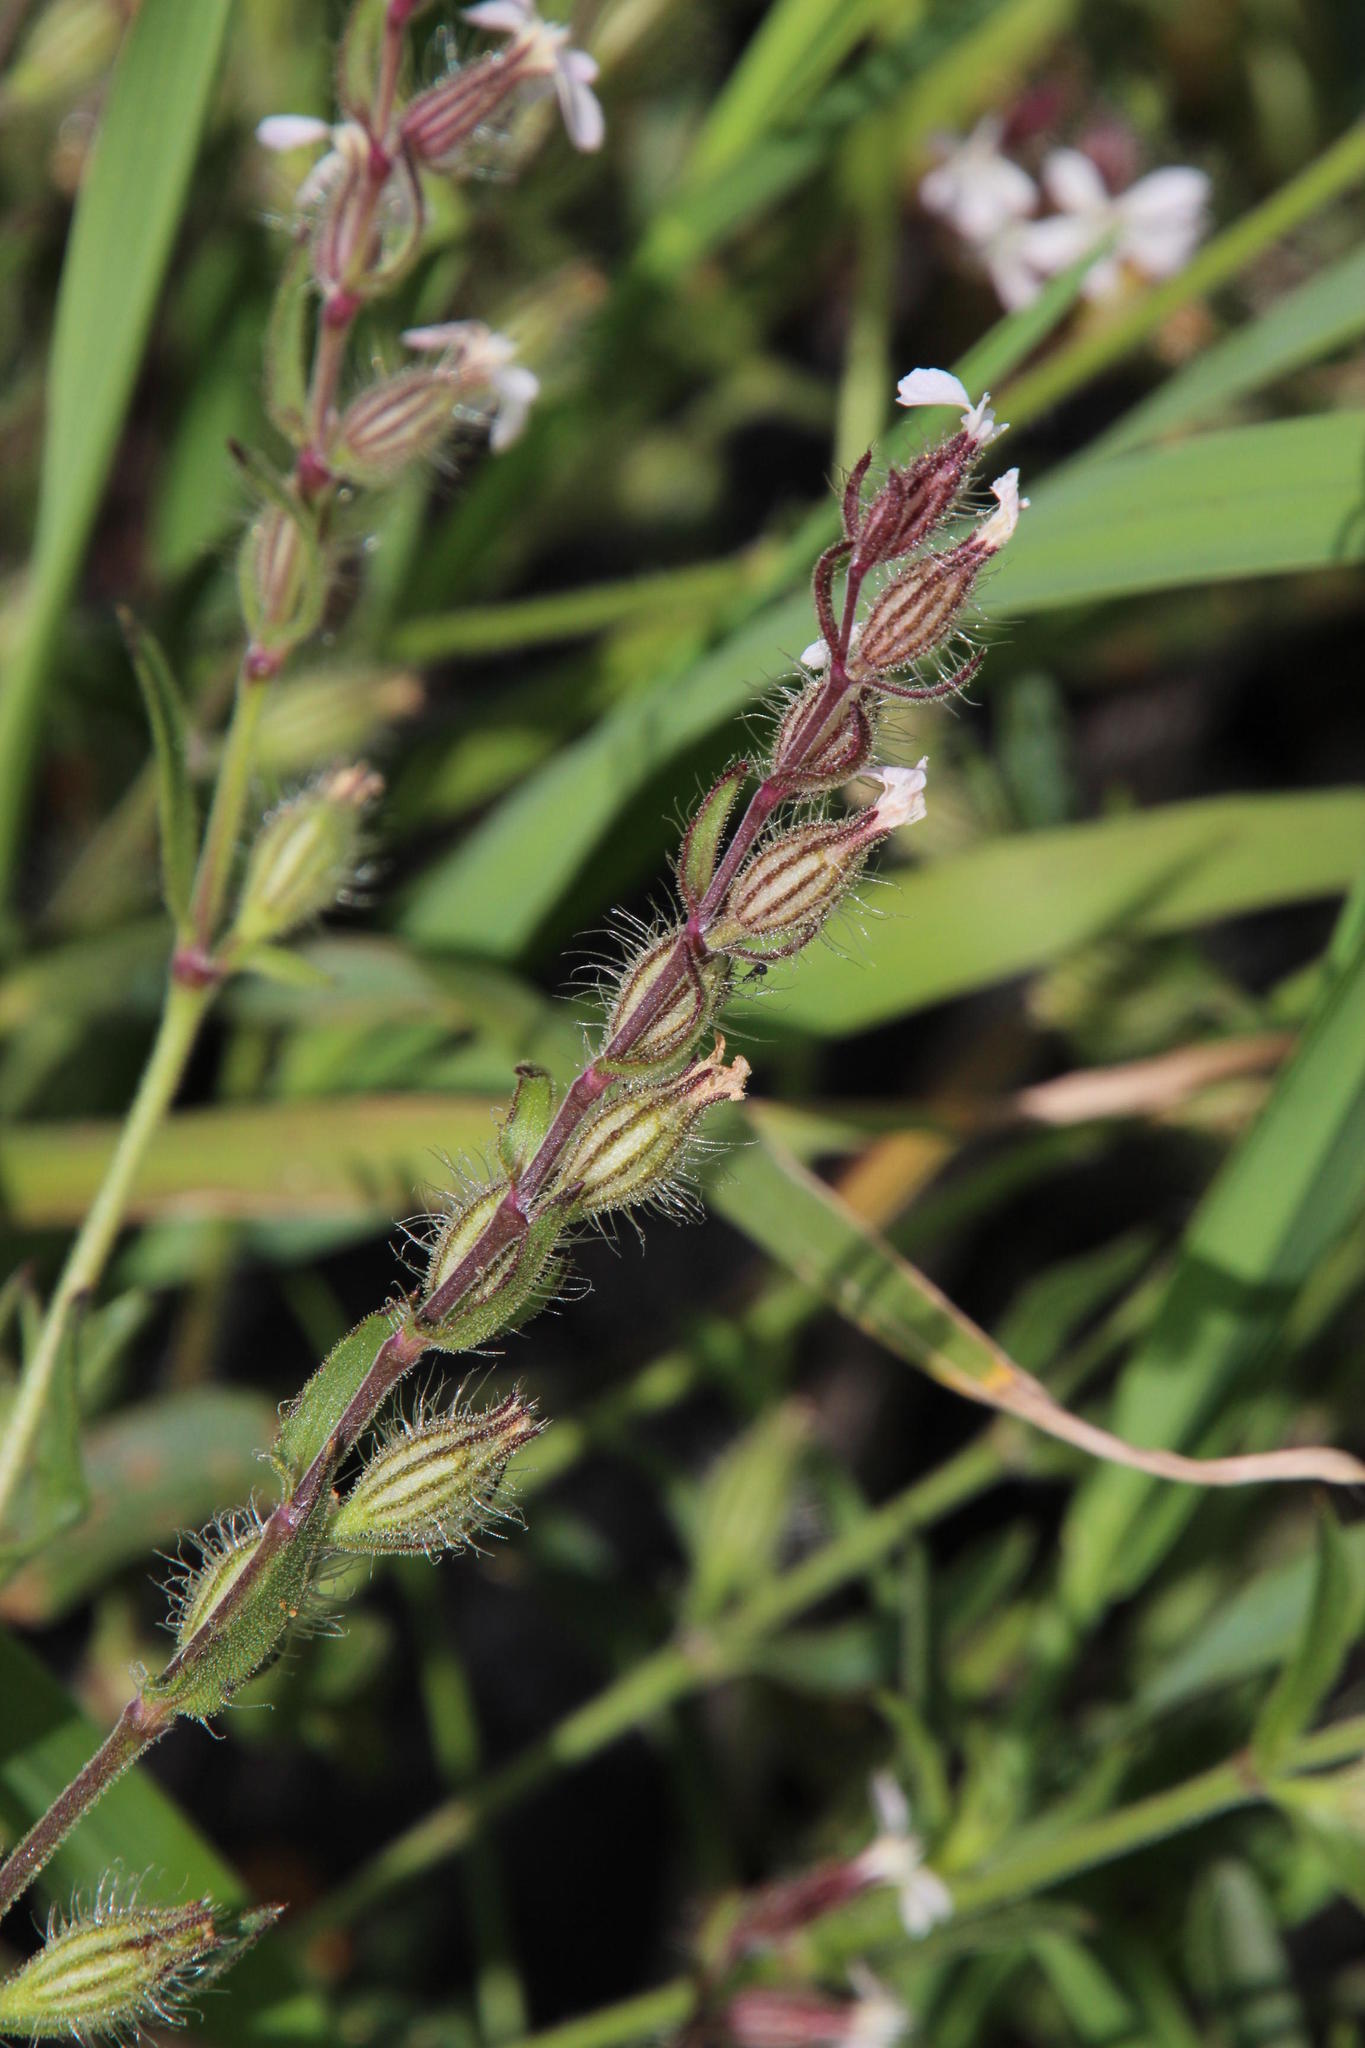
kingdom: Plantae
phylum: Tracheophyta
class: Magnoliopsida
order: Caryophyllales
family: Caryophyllaceae
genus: Silene
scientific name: Silene gallica
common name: Small-flowered catchfly
